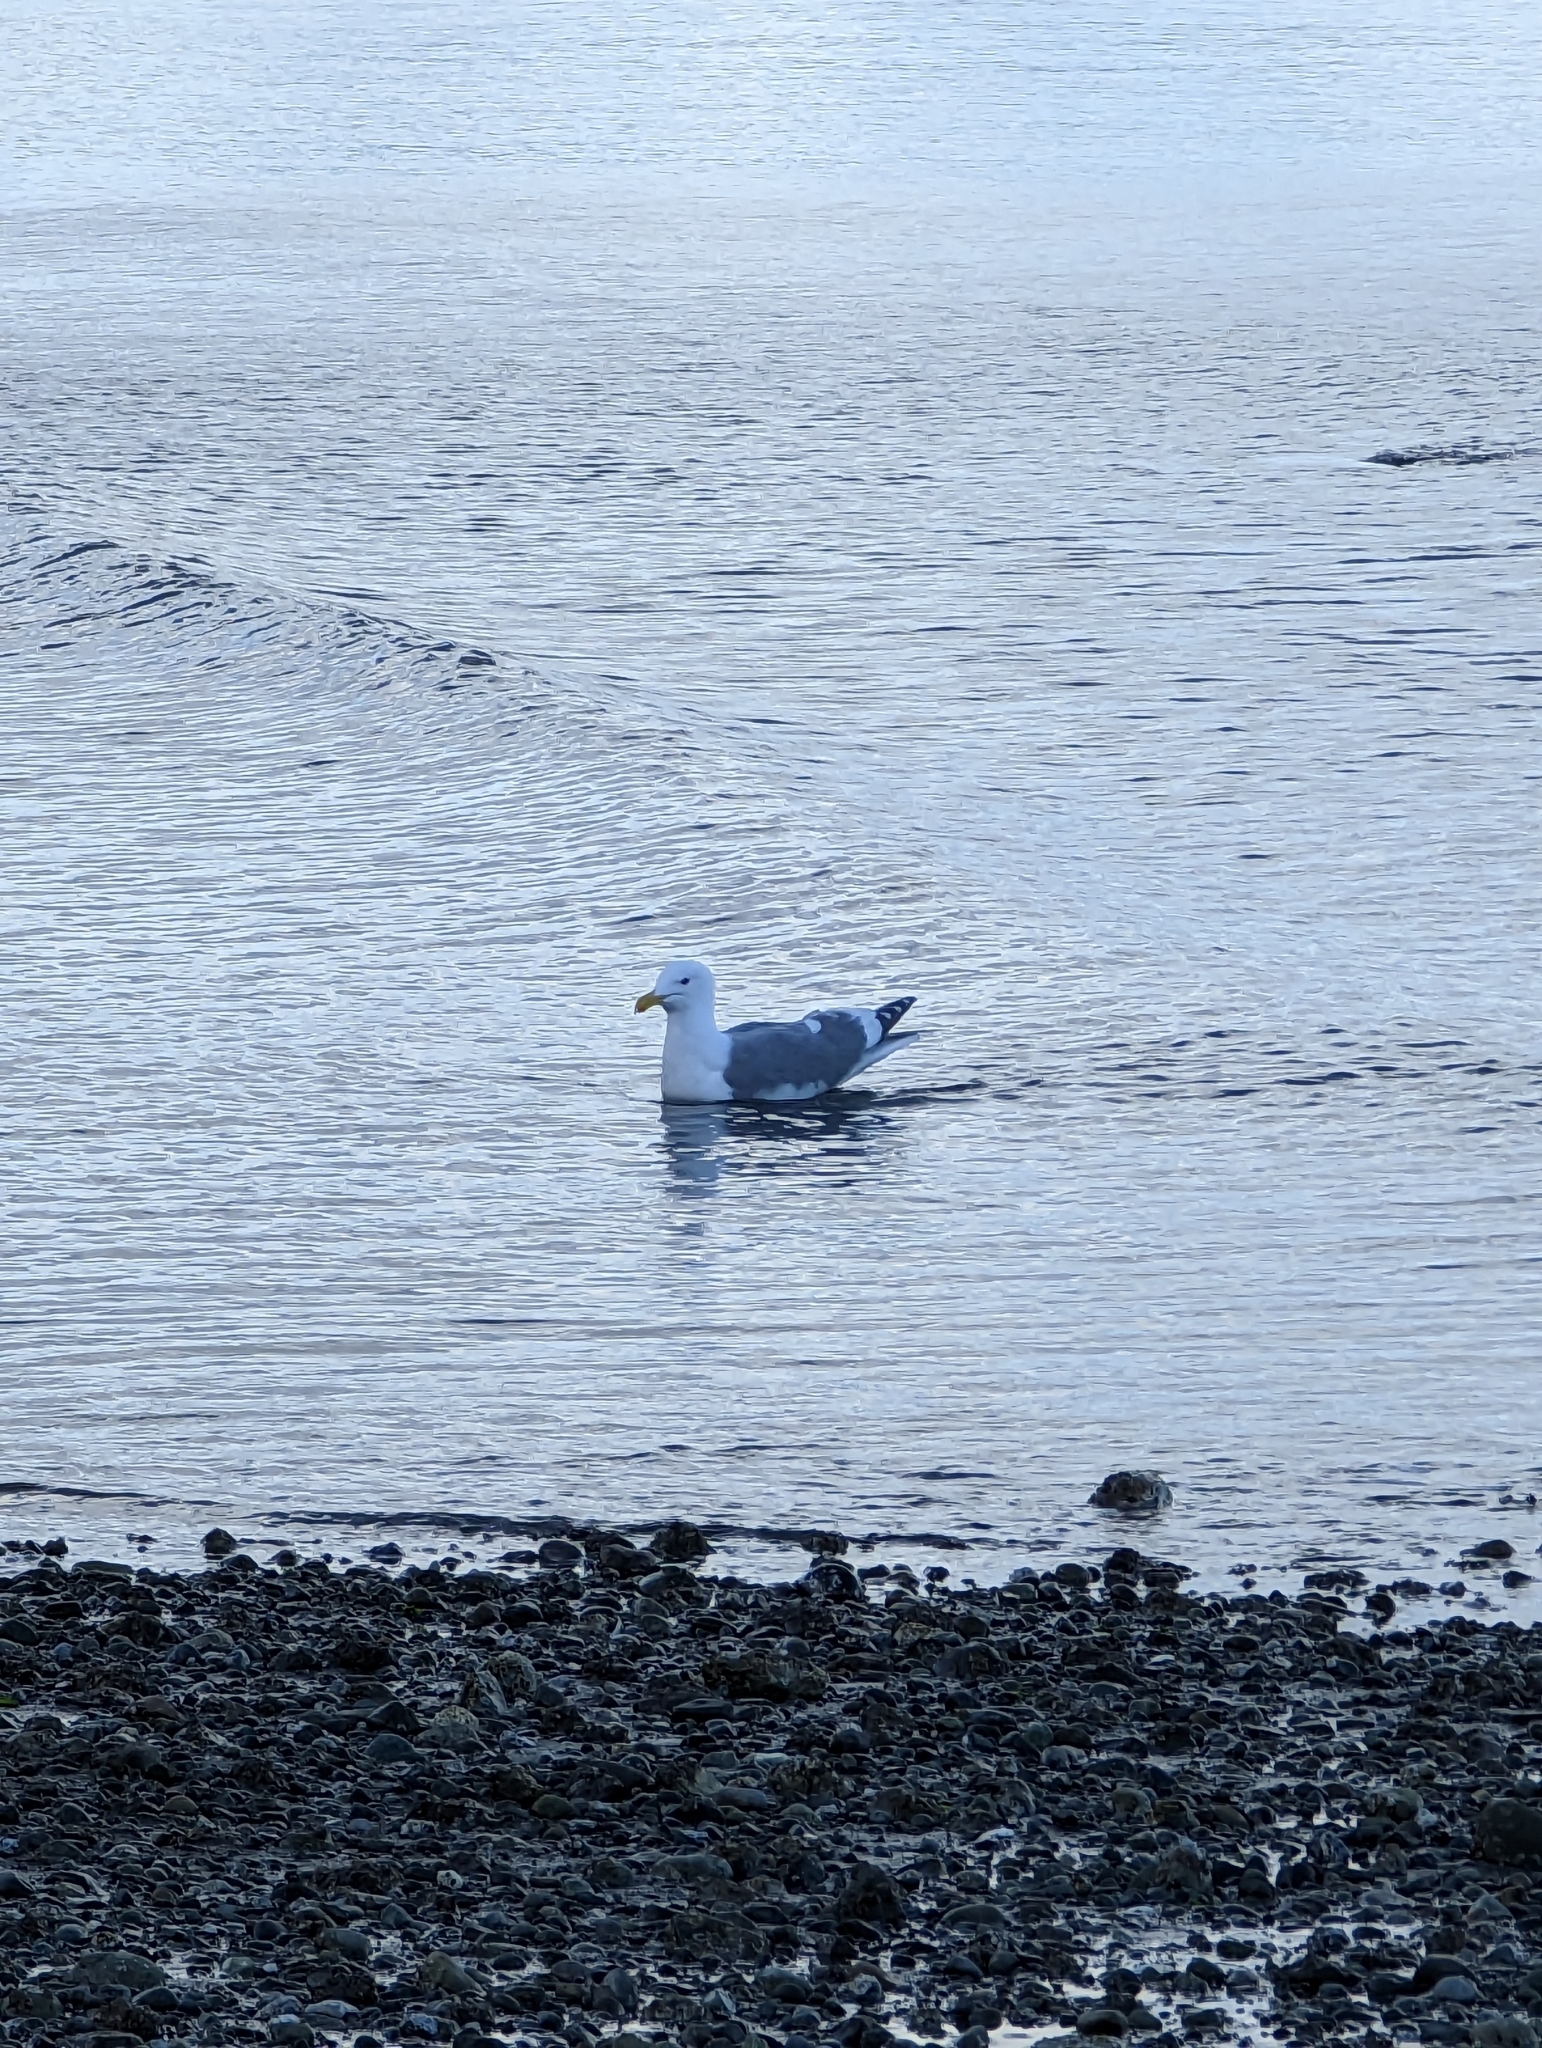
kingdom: Animalia
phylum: Chordata
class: Aves
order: Charadriiformes
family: Laridae
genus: Larus
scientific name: Larus
